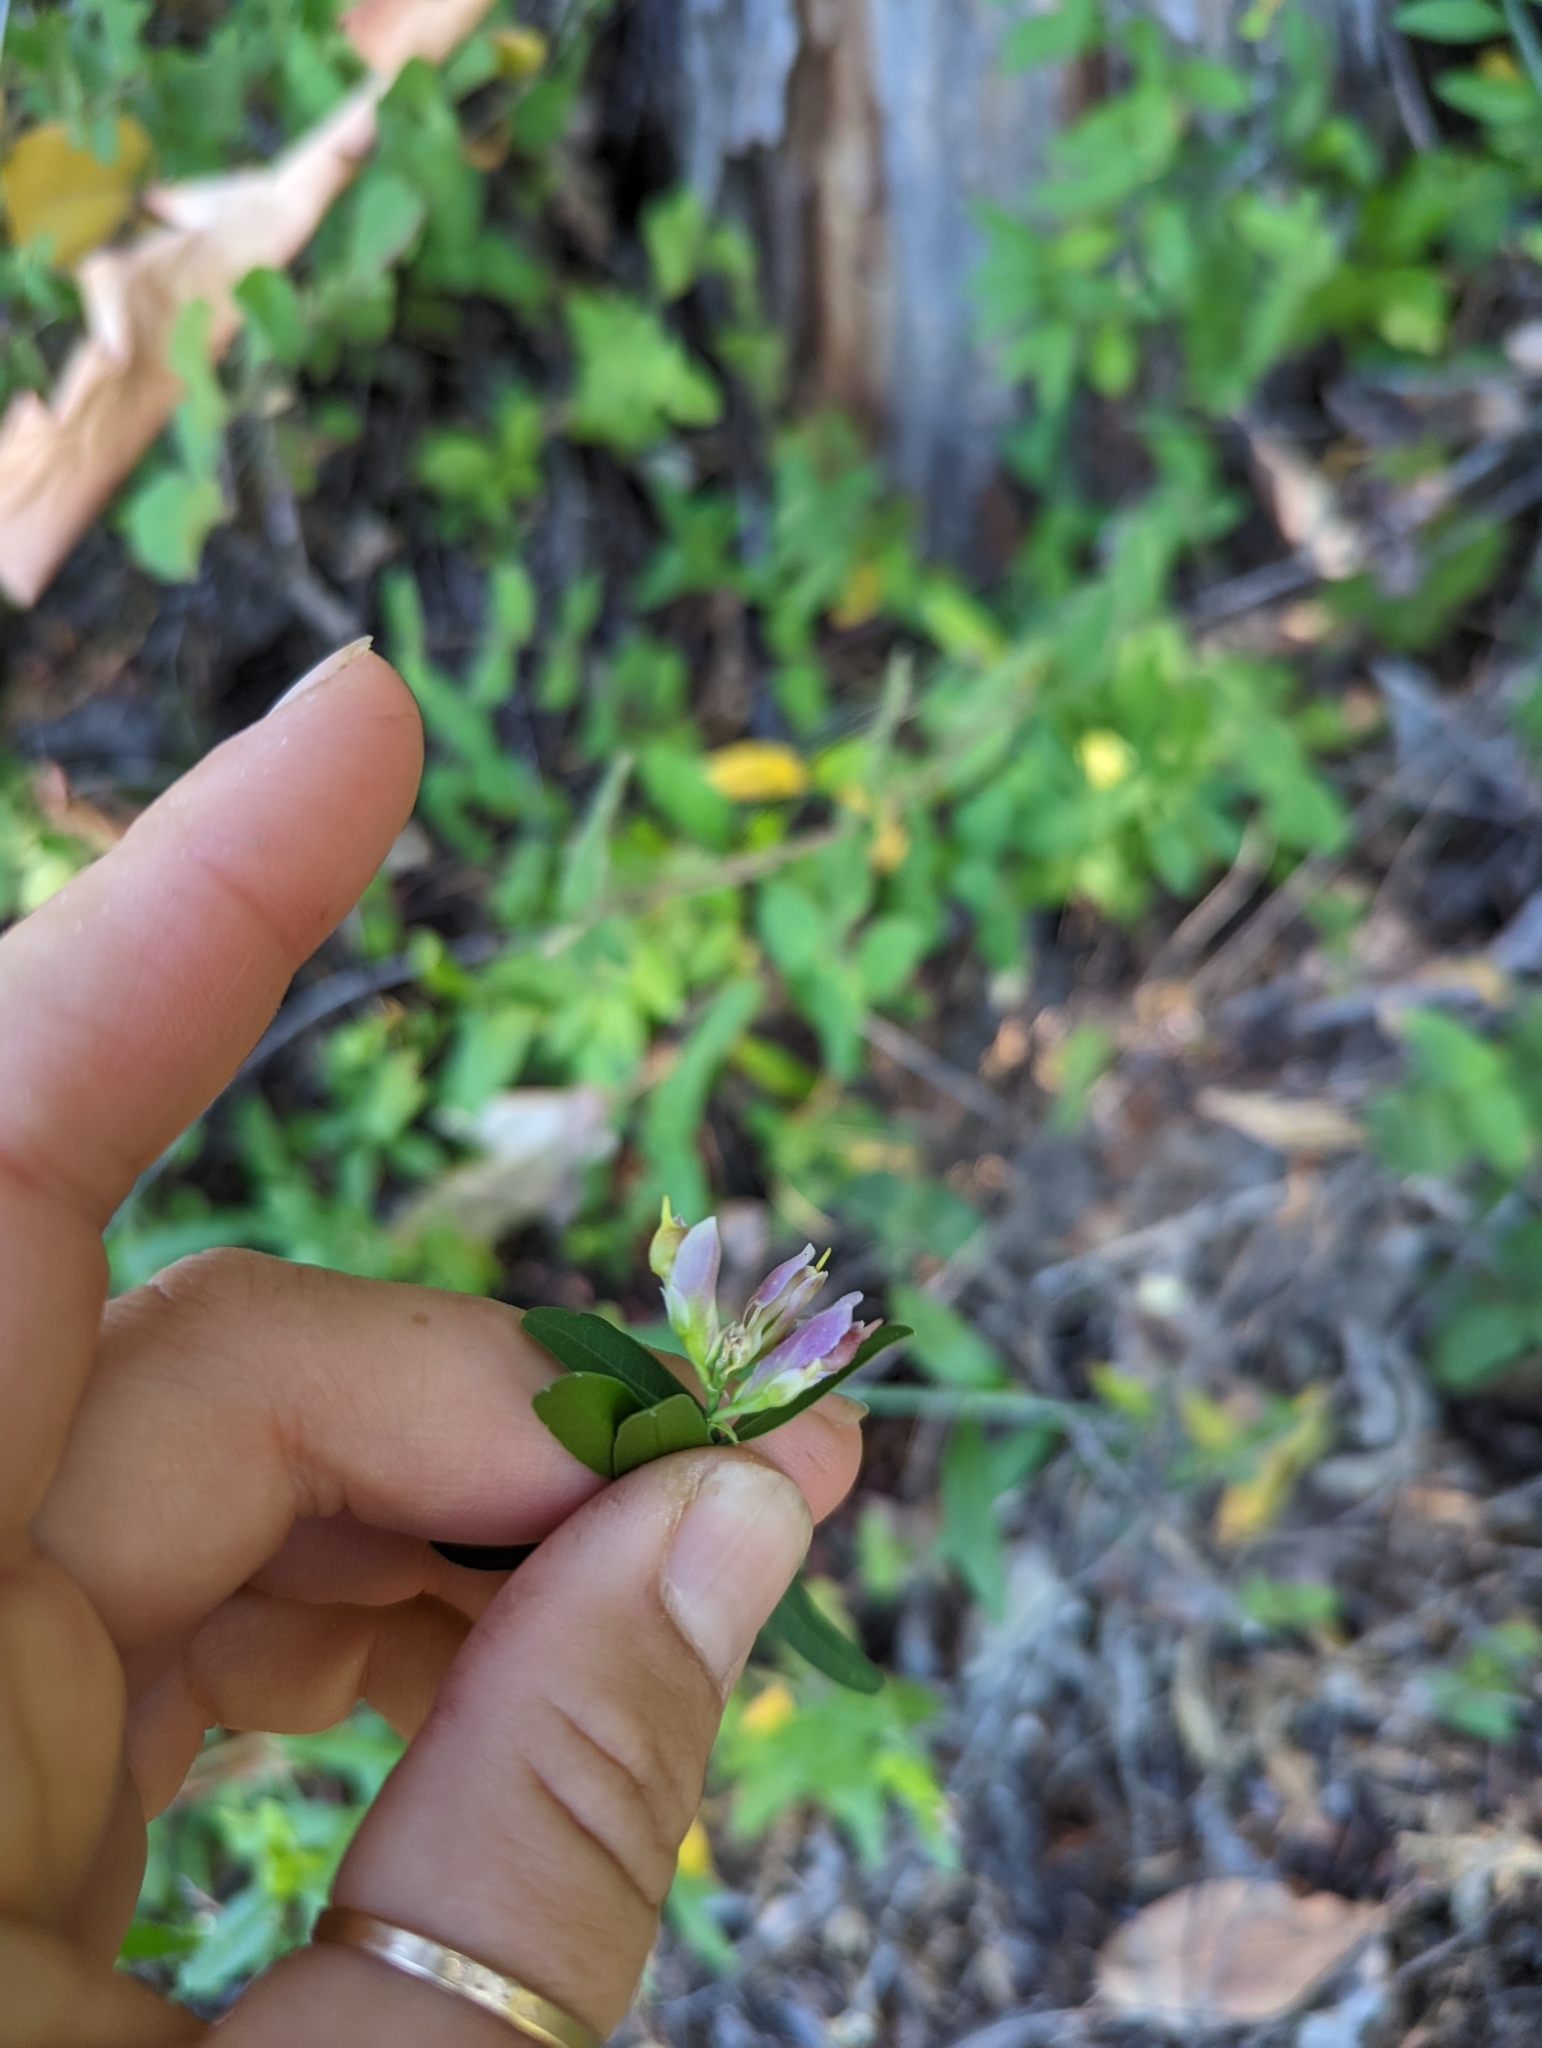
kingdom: Plantae
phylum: Tracheophyta
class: Magnoliopsida
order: Fabales
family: Polygalaceae
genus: Rhinotropis
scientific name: Rhinotropis cornuta
